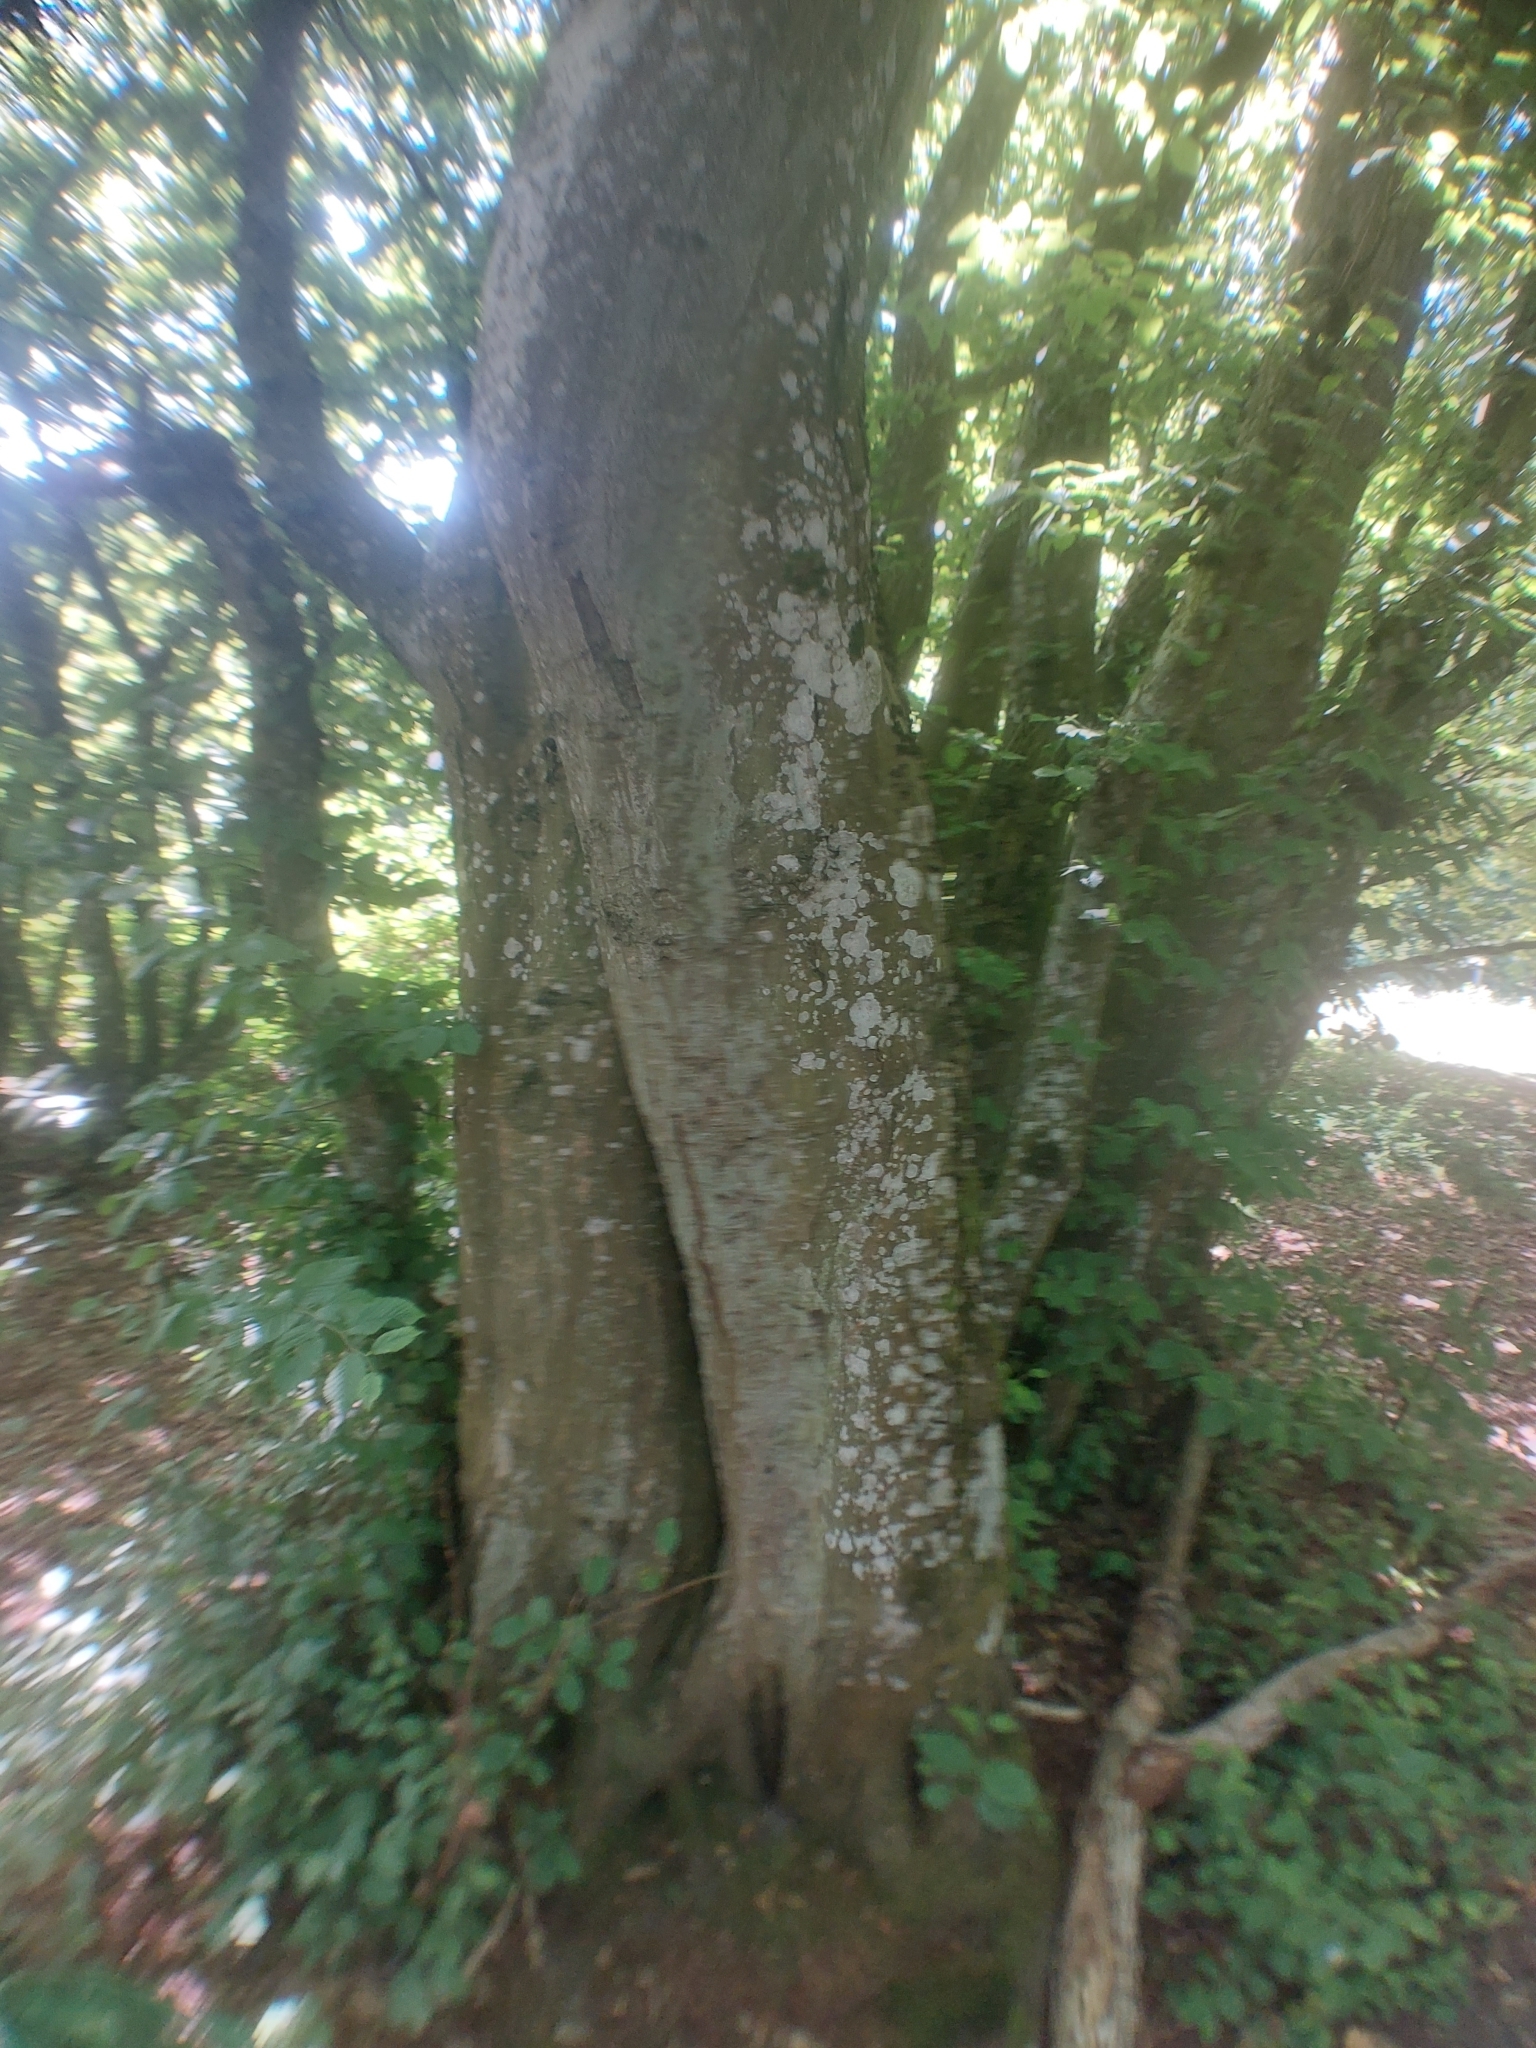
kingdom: Plantae
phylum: Tracheophyta
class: Magnoliopsida
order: Fagales
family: Betulaceae
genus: Carpinus
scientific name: Carpinus betulus
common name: Hornbeam
